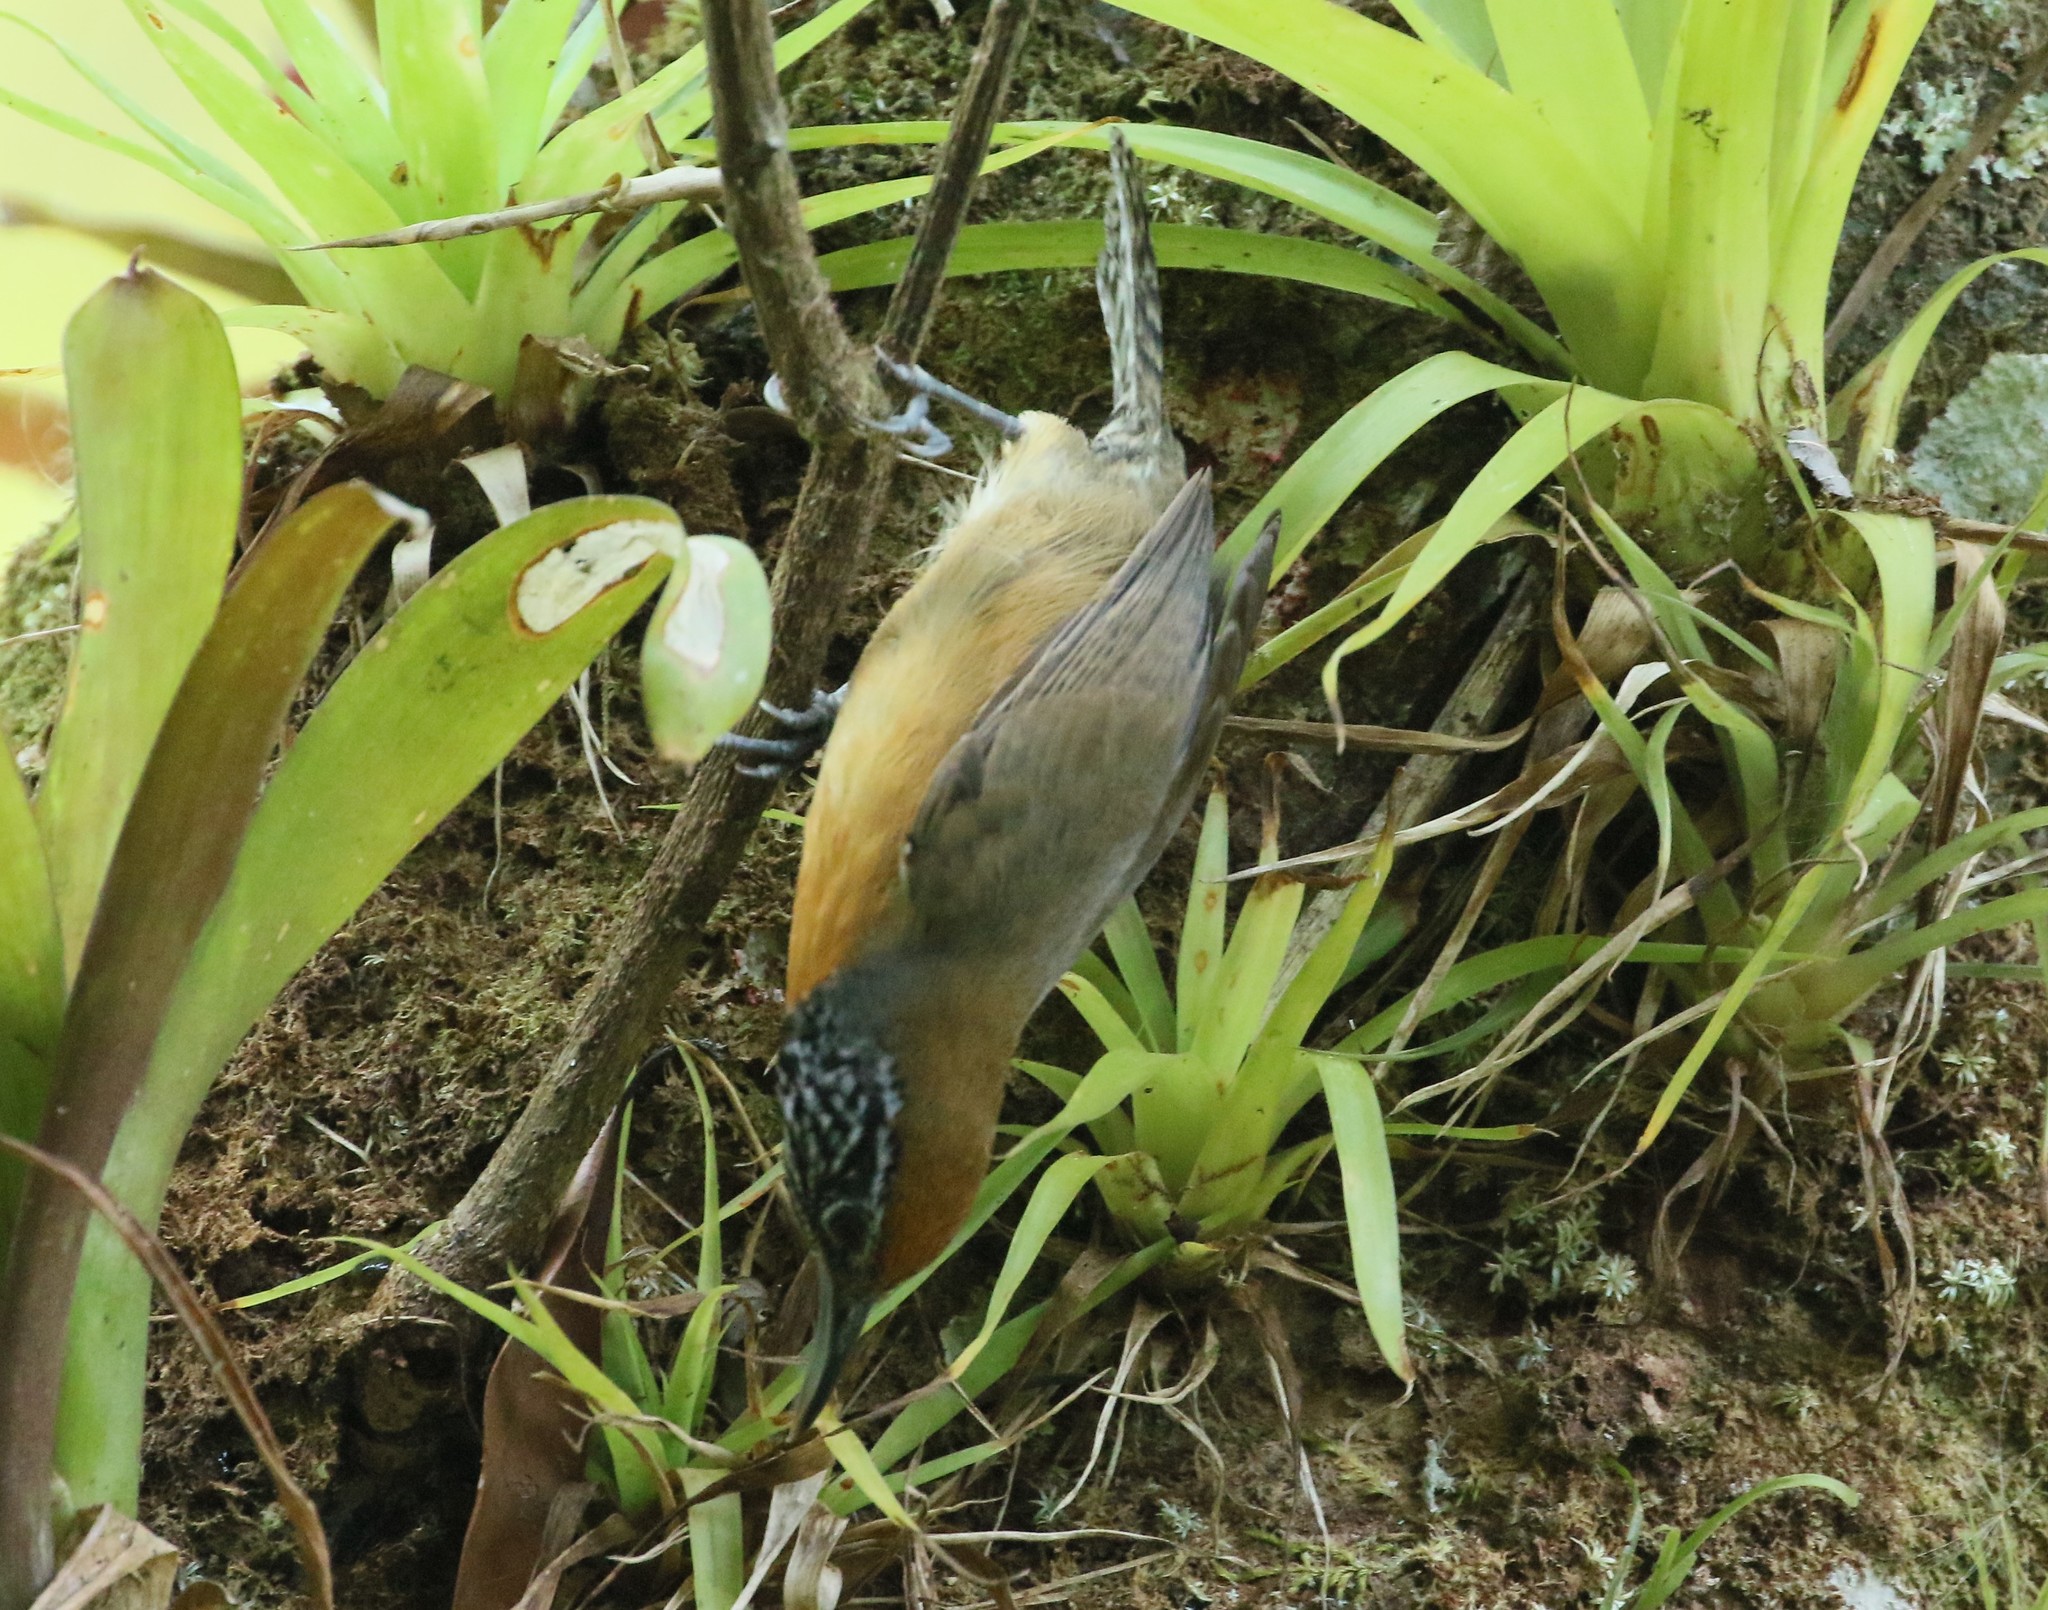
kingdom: Animalia
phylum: Chordata
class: Aves
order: Passeriformes
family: Troglodytidae
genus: Pheugopedius
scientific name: Pheugopedius rutilus
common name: Rufous-breasted wren
